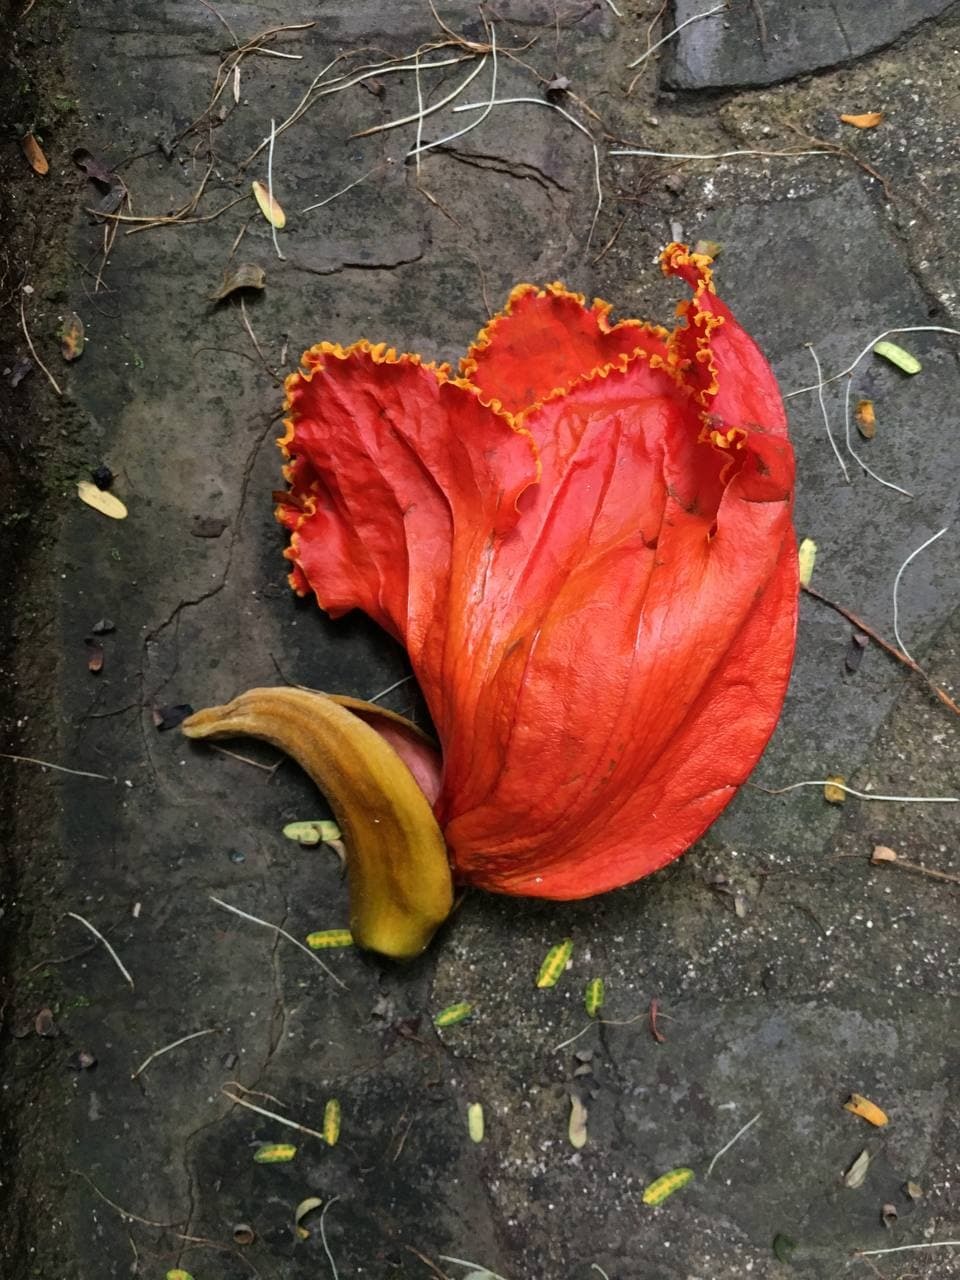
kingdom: Plantae
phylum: Tracheophyta
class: Magnoliopsida
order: Lamiales
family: Bignoniaceae
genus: Spathodea
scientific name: Spathodea campanulata
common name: African tuliptree
